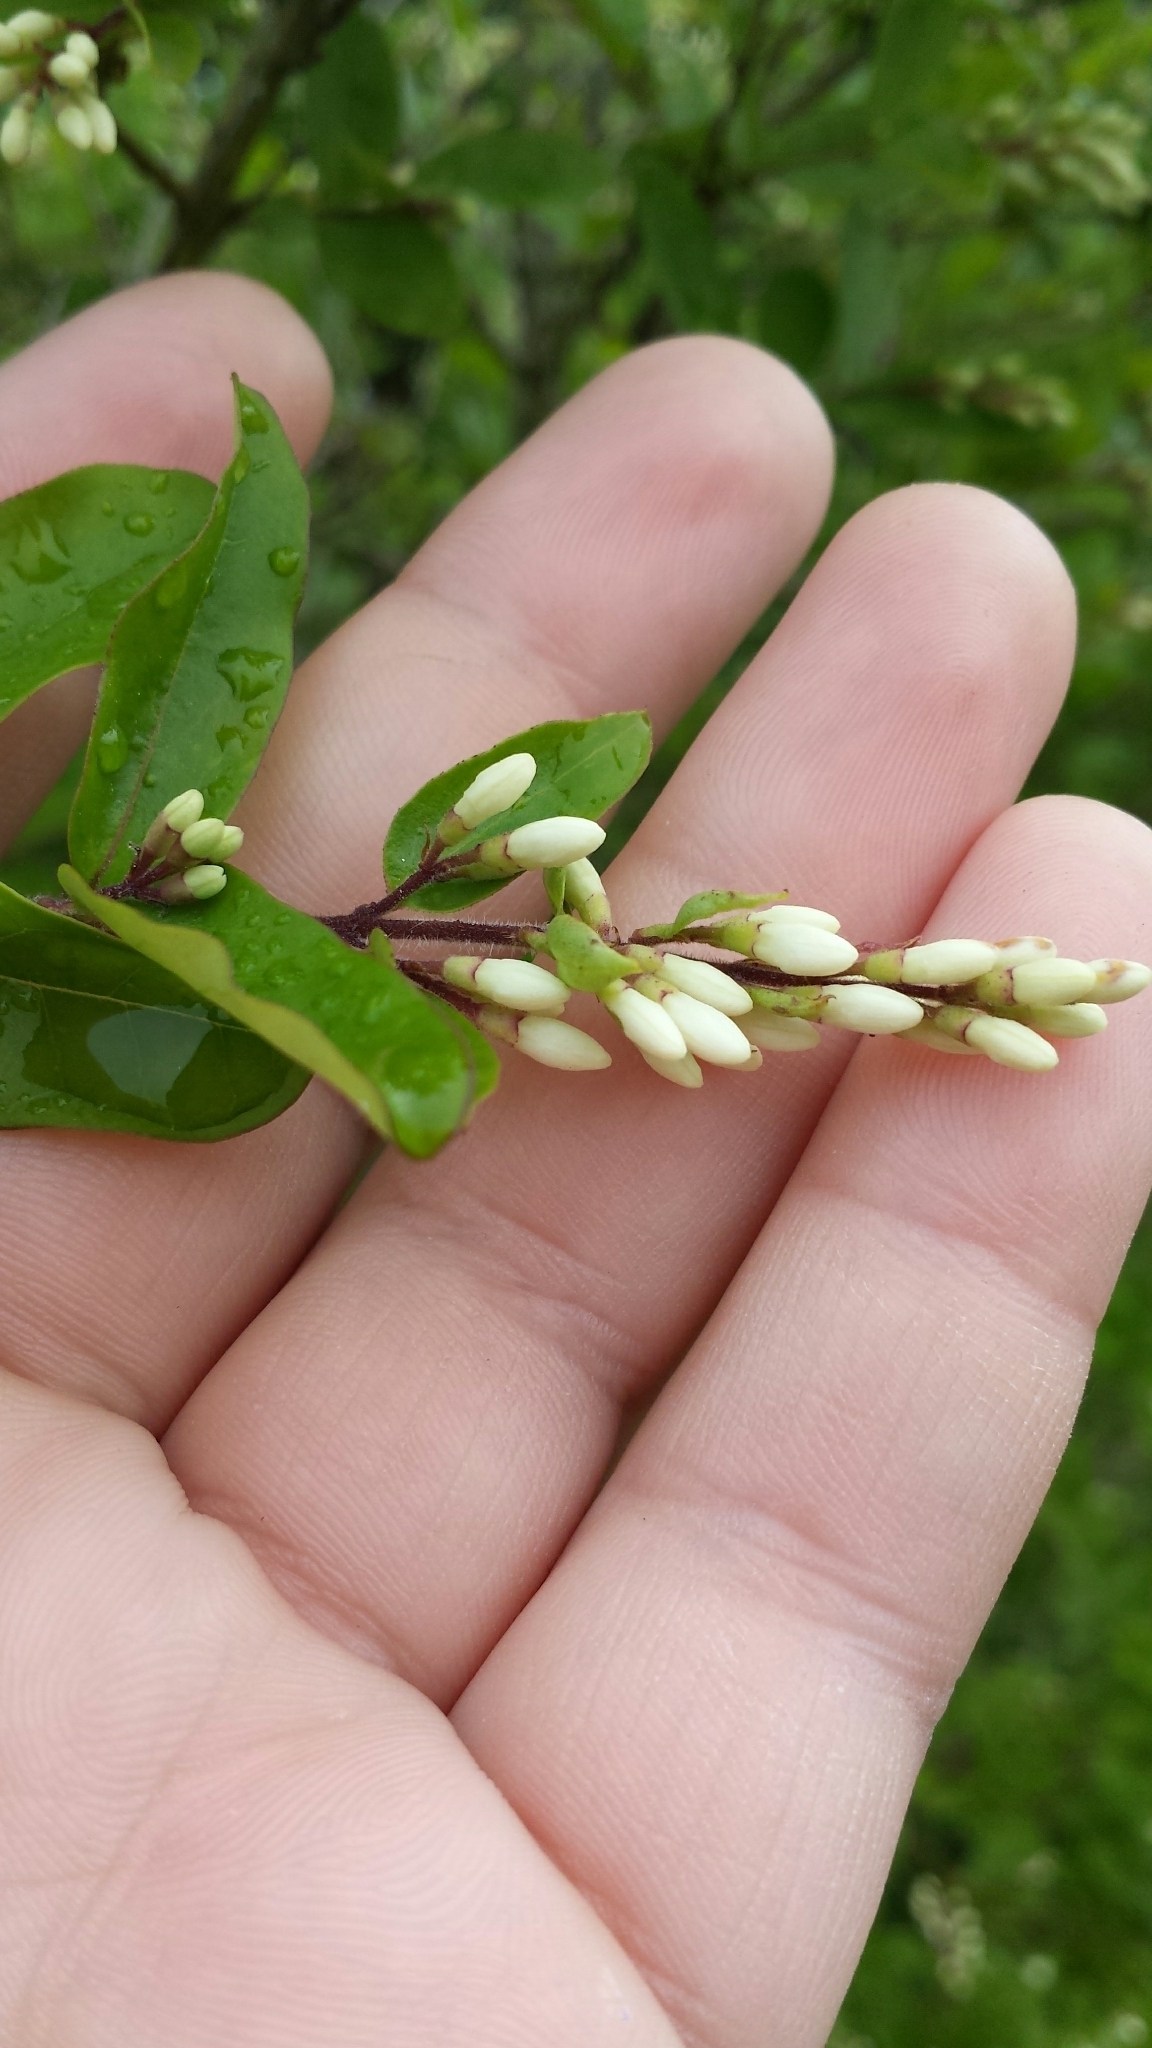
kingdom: Plantae
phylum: Tracheophyta
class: Magnoliopsida
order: Lamiales
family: Oleaceae
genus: Ligustrum
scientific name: Ligustrum vulgare
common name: Wild privet
